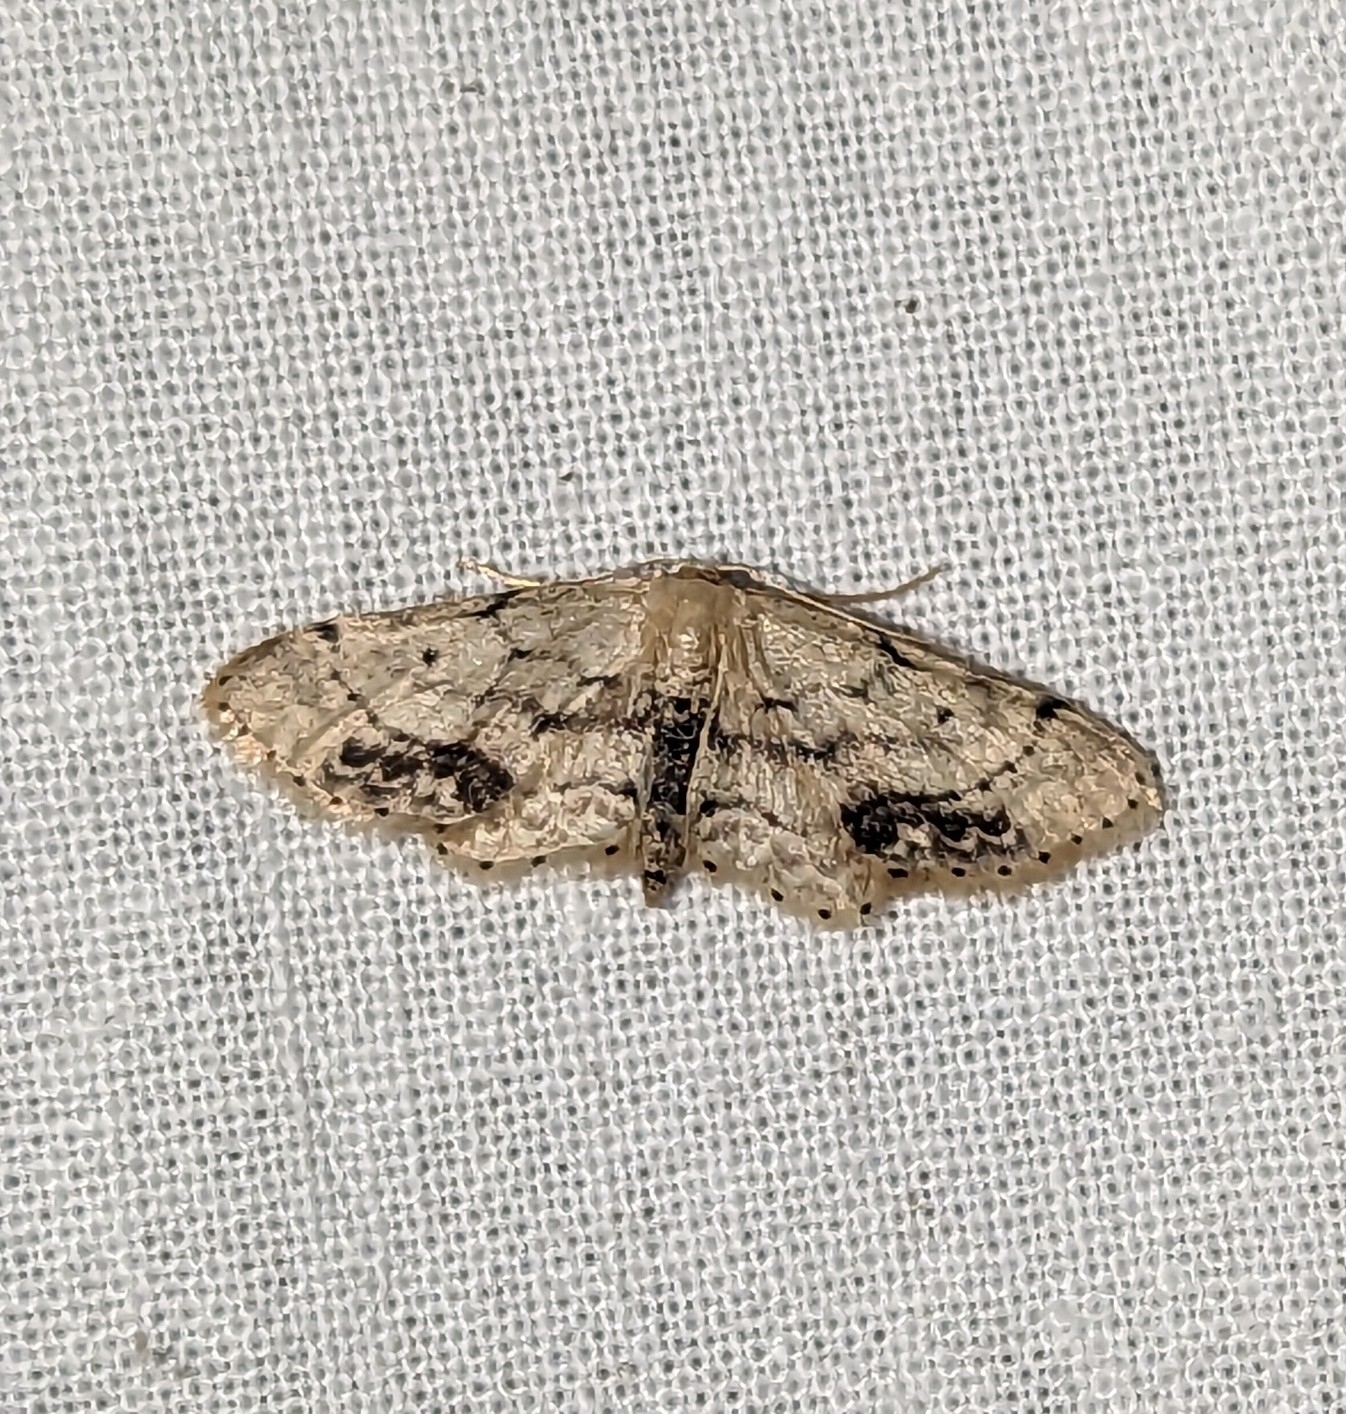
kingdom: Animalia
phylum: Arthropoda
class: Insecta
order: Lepidoptera
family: Geometridae
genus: Idaea
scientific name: Idaea dimidiata
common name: Single-dotted wave
